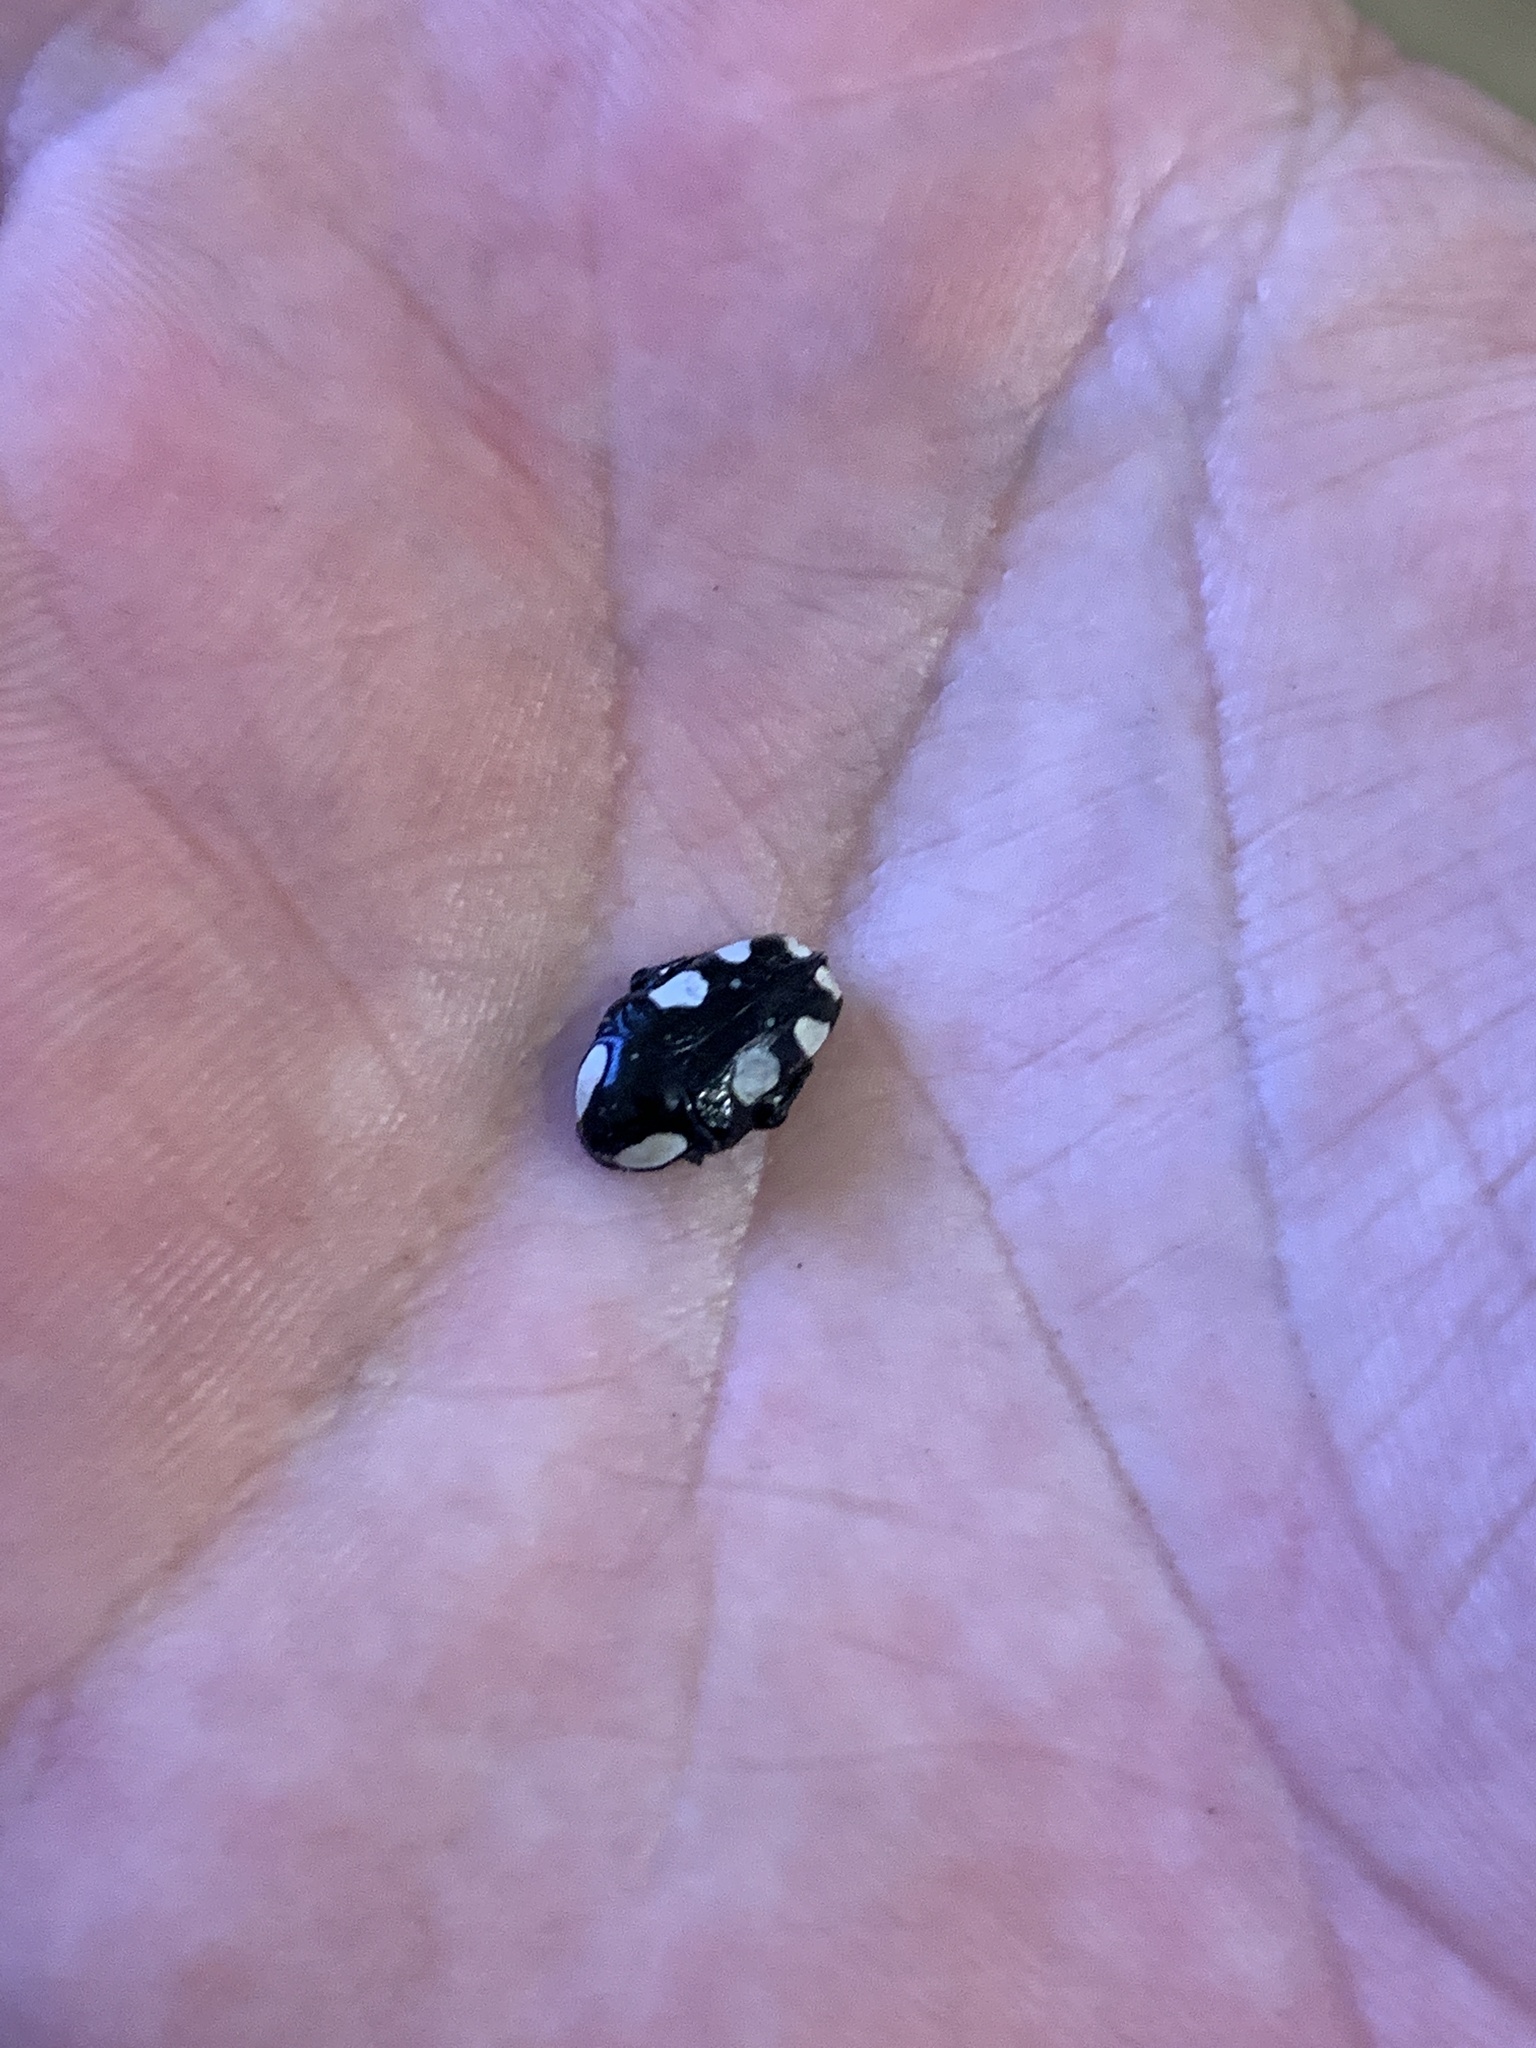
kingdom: Animalia
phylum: Arthropoda
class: Insecta
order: Coleoptera
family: Scarabaeidae
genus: Mausoleopsis
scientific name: Mausoleopsis amabilis
